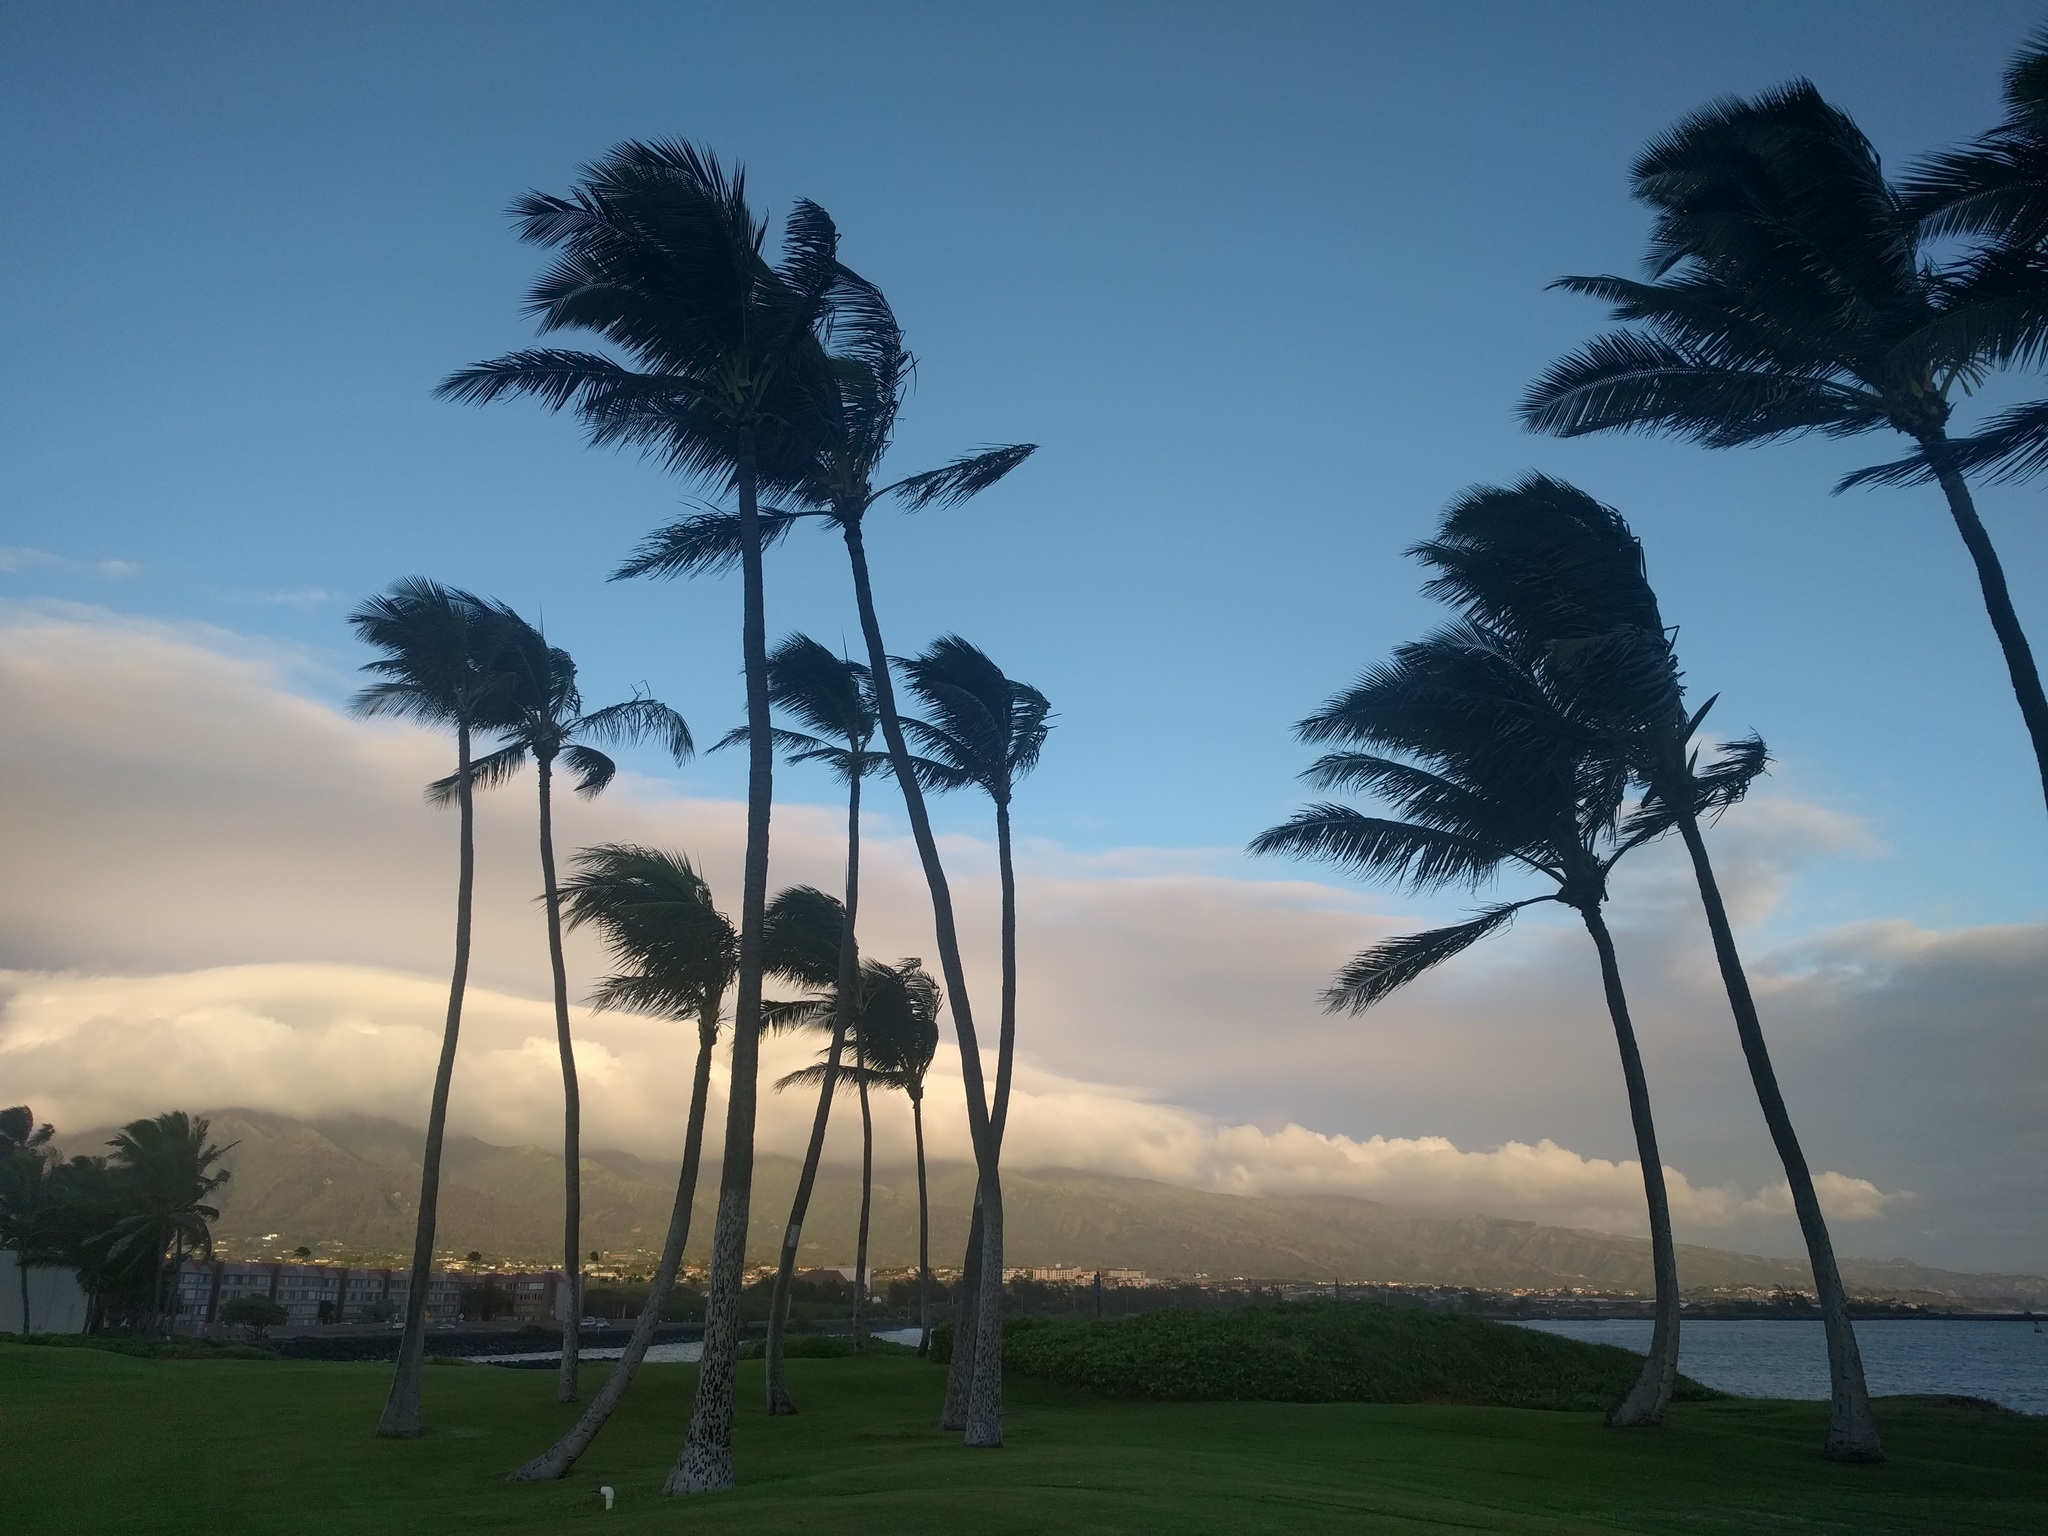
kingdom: Plantae
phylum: Tracheophyta
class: Liliopsida
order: Arecales
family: Arecaceae
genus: Cocos
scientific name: Cocos nucifera
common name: Coconut palm
